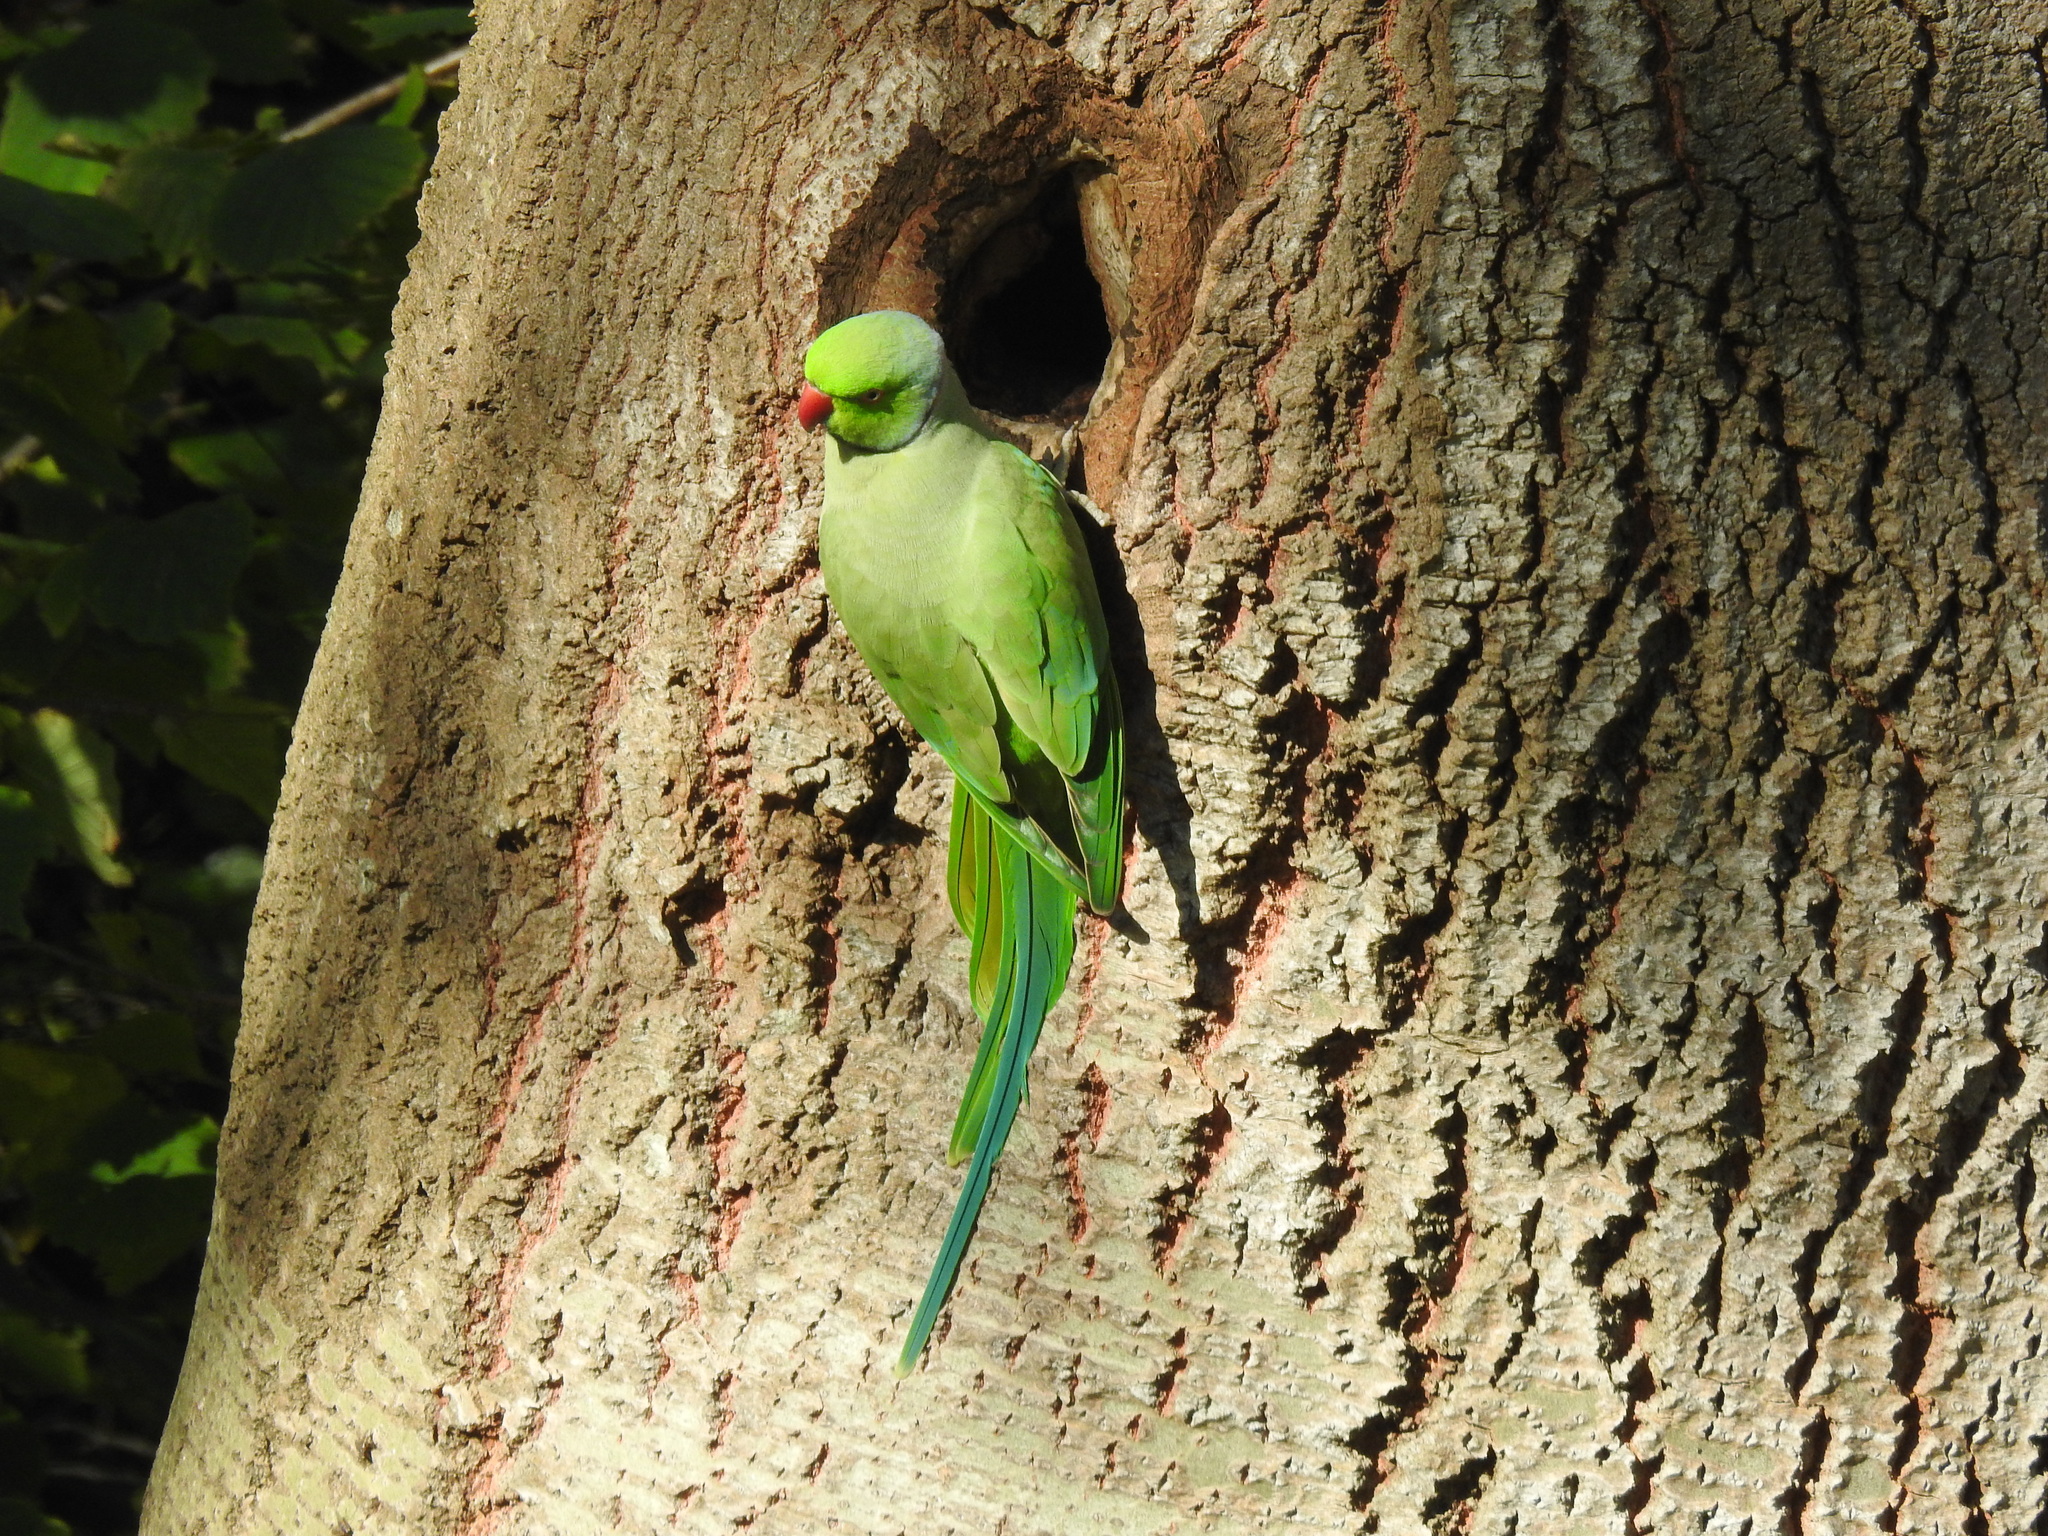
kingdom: Animalia
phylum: Chordata
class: Aves
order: Psittaciformes
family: Psittacidae
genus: Psittacula
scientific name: Psittacula krameri
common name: Rose-ringed parakeet
